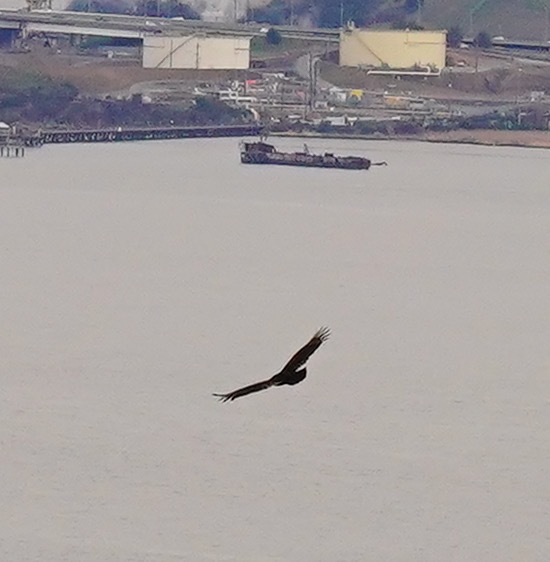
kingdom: Animalia
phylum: Chordata
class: Aves
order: Accipitriformes
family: Cathartidae
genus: Cathartes
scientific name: Cathartes aura
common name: Turkey vulture
